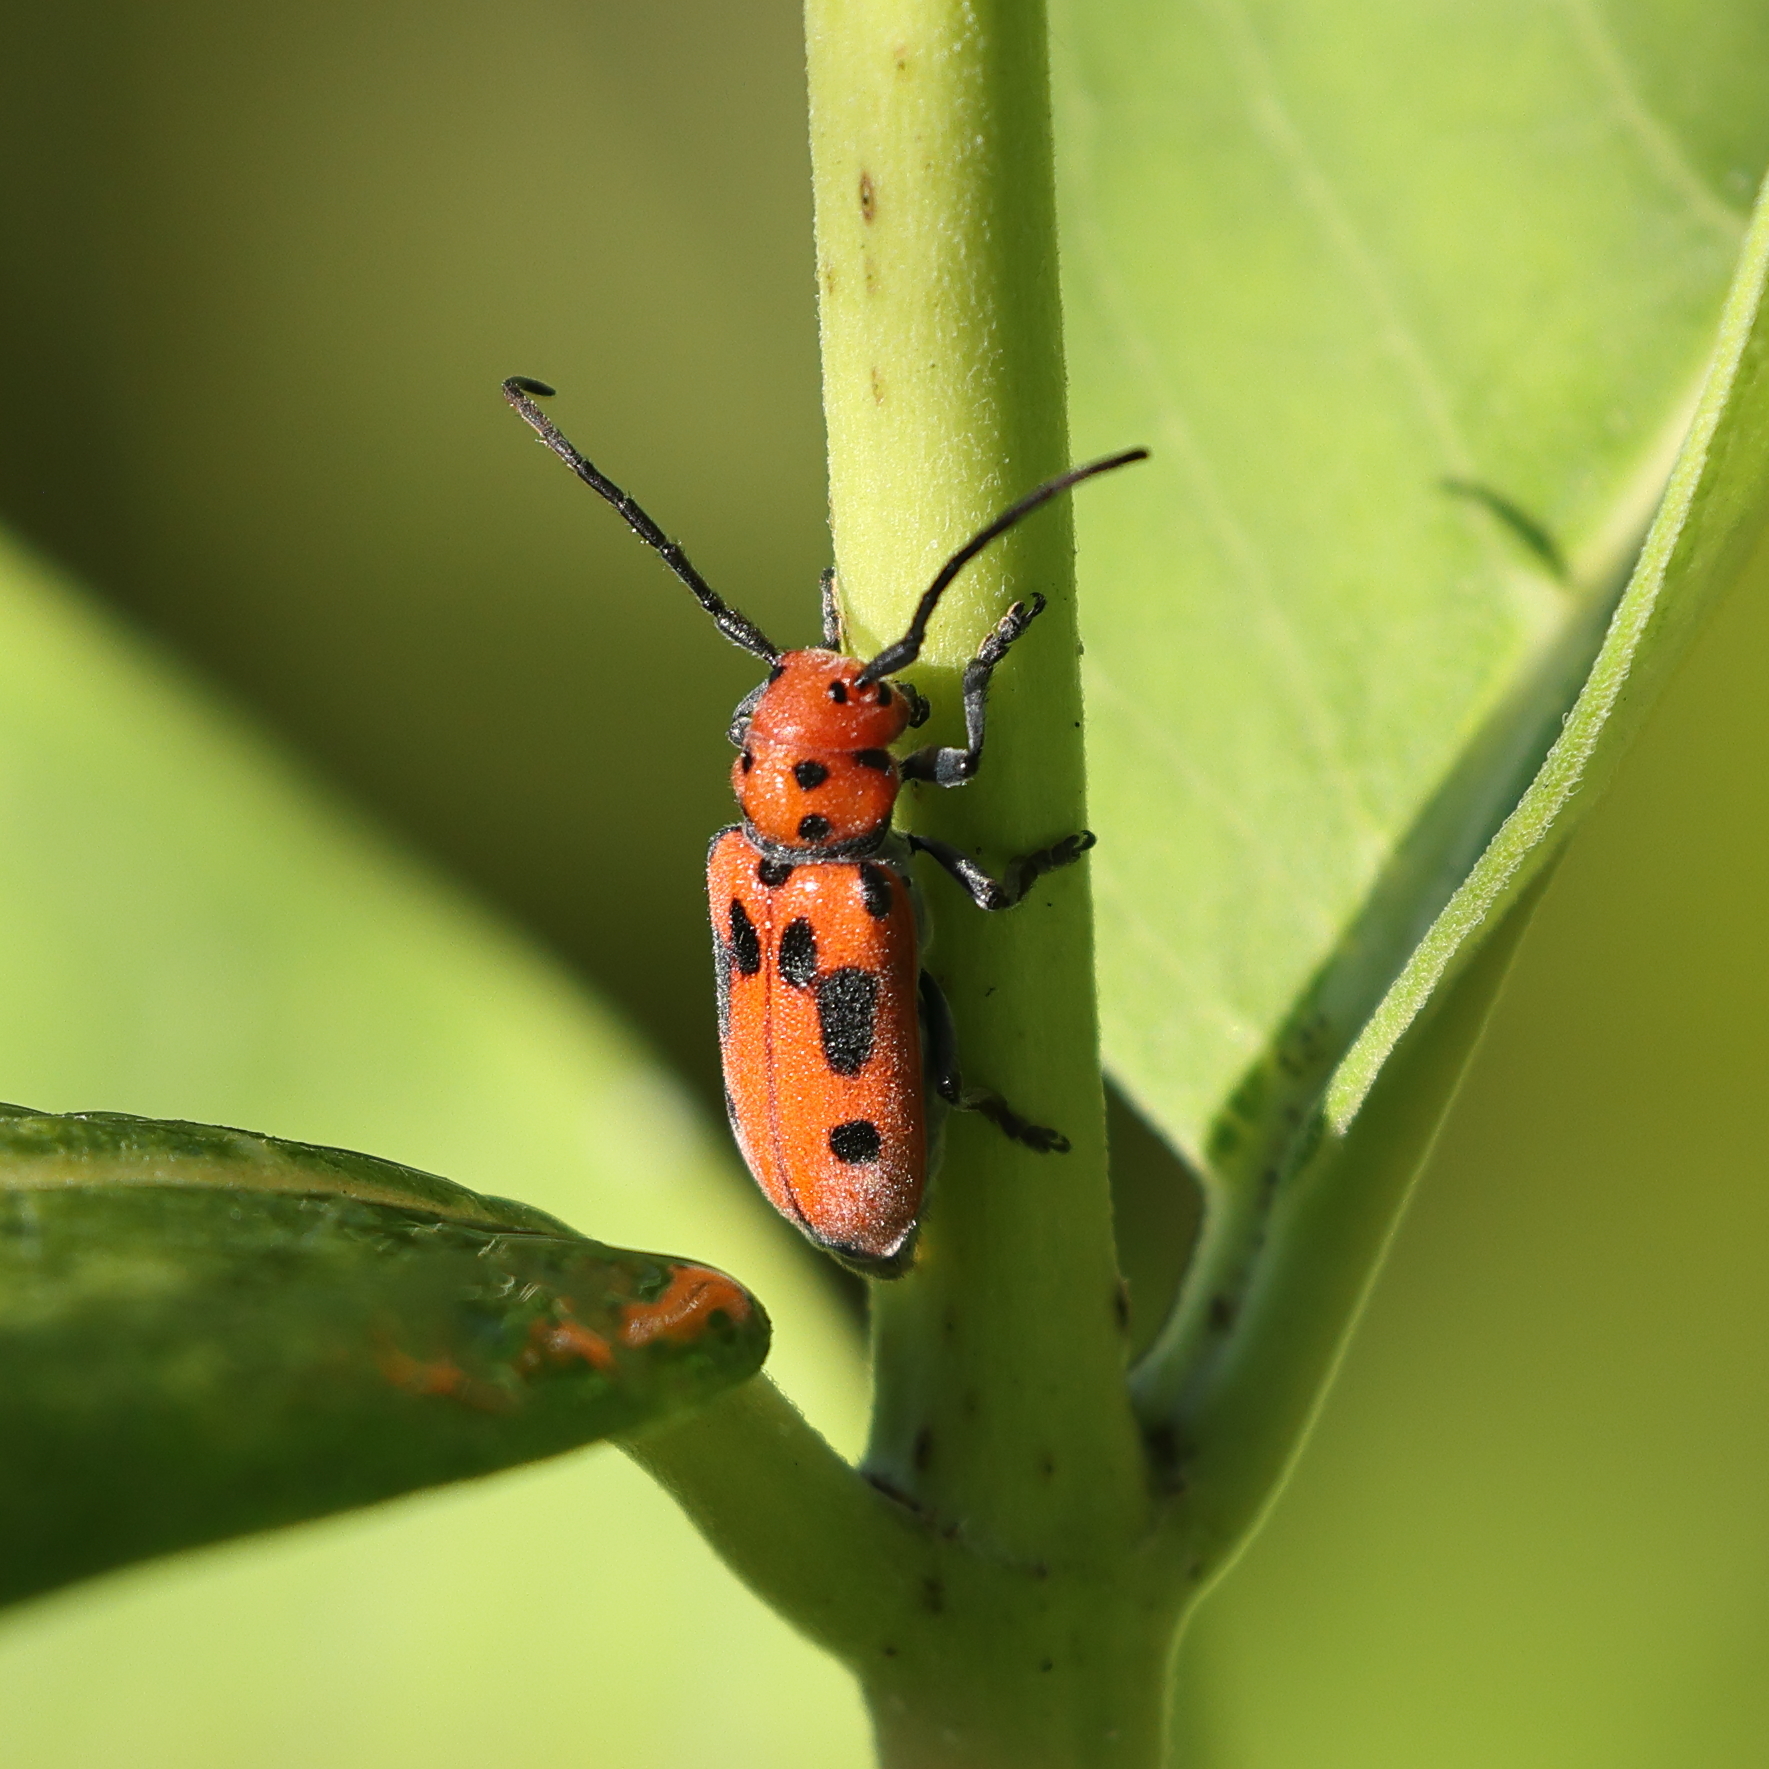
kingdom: Animalia
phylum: Arthropoda
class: Insecta
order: Coleoptera
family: Cerambycidae
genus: Tetraopes
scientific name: Tetraopes tetrophthalmus
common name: Red milkweed beetle
